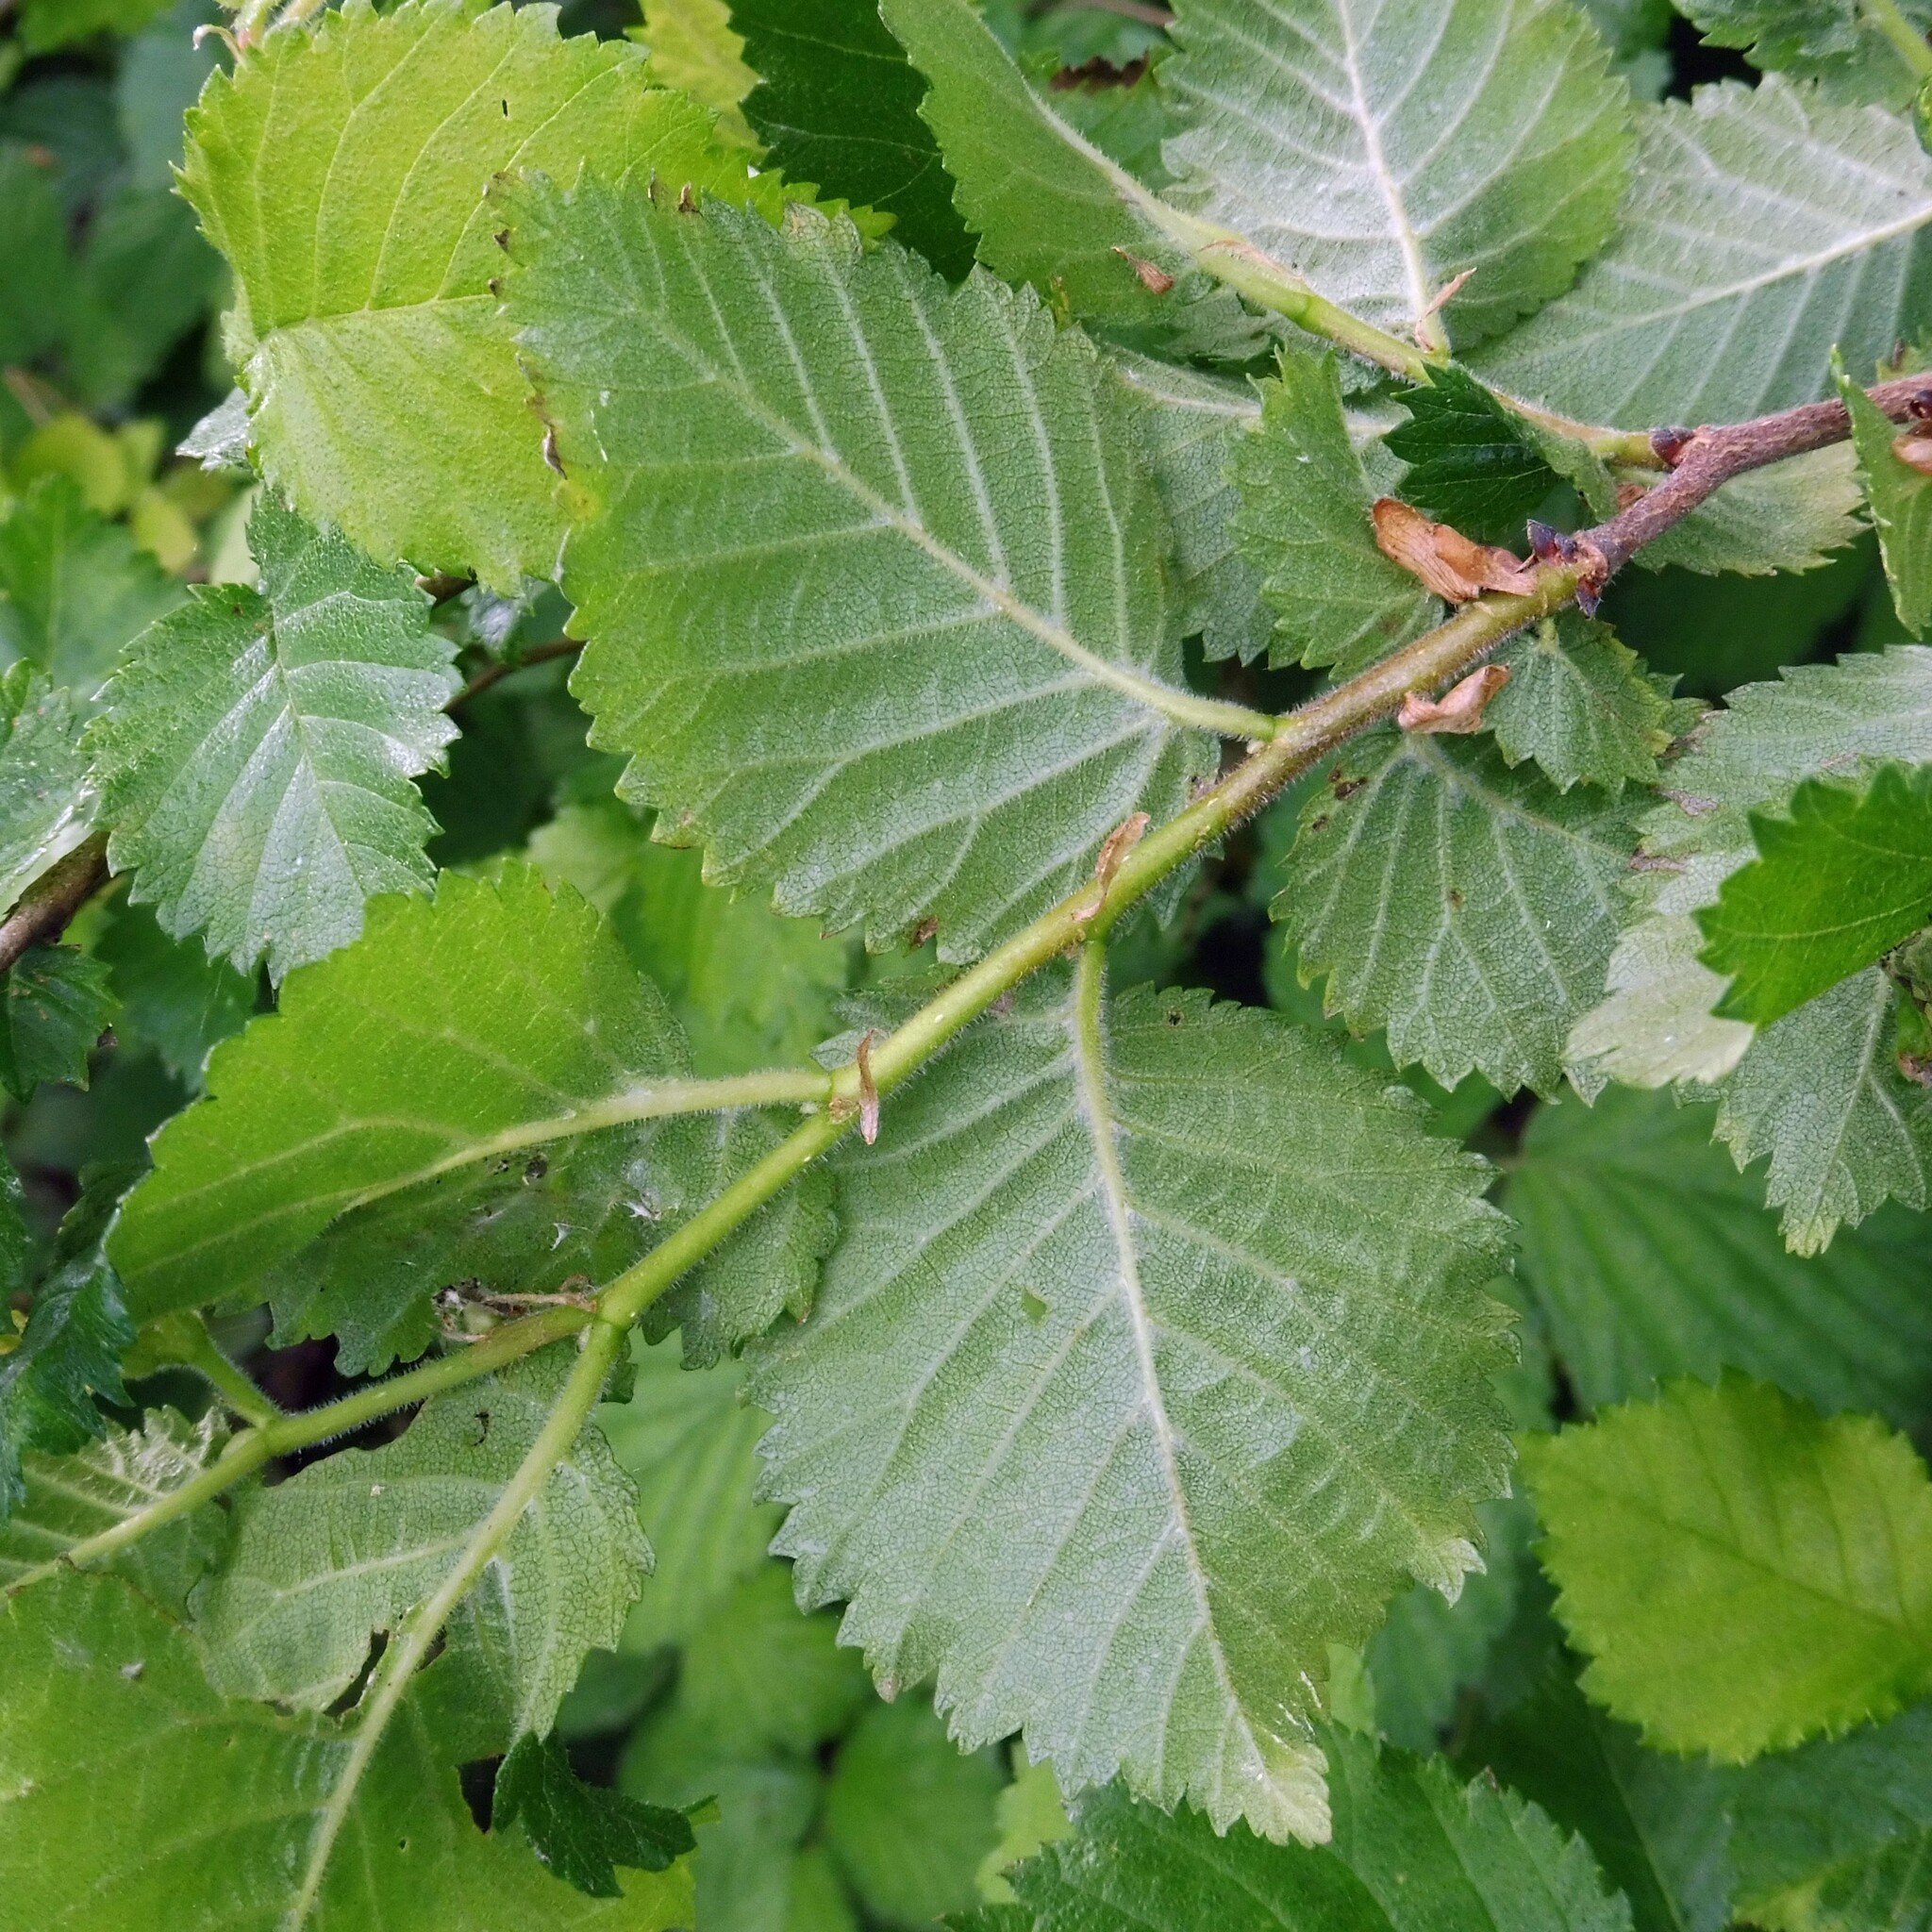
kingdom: Plantae
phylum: Tracheophyta
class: Magnoliopsida
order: Rosales
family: Ulmaceae
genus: Ulmus
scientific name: Ulmus minor
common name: Small-leaved elm
